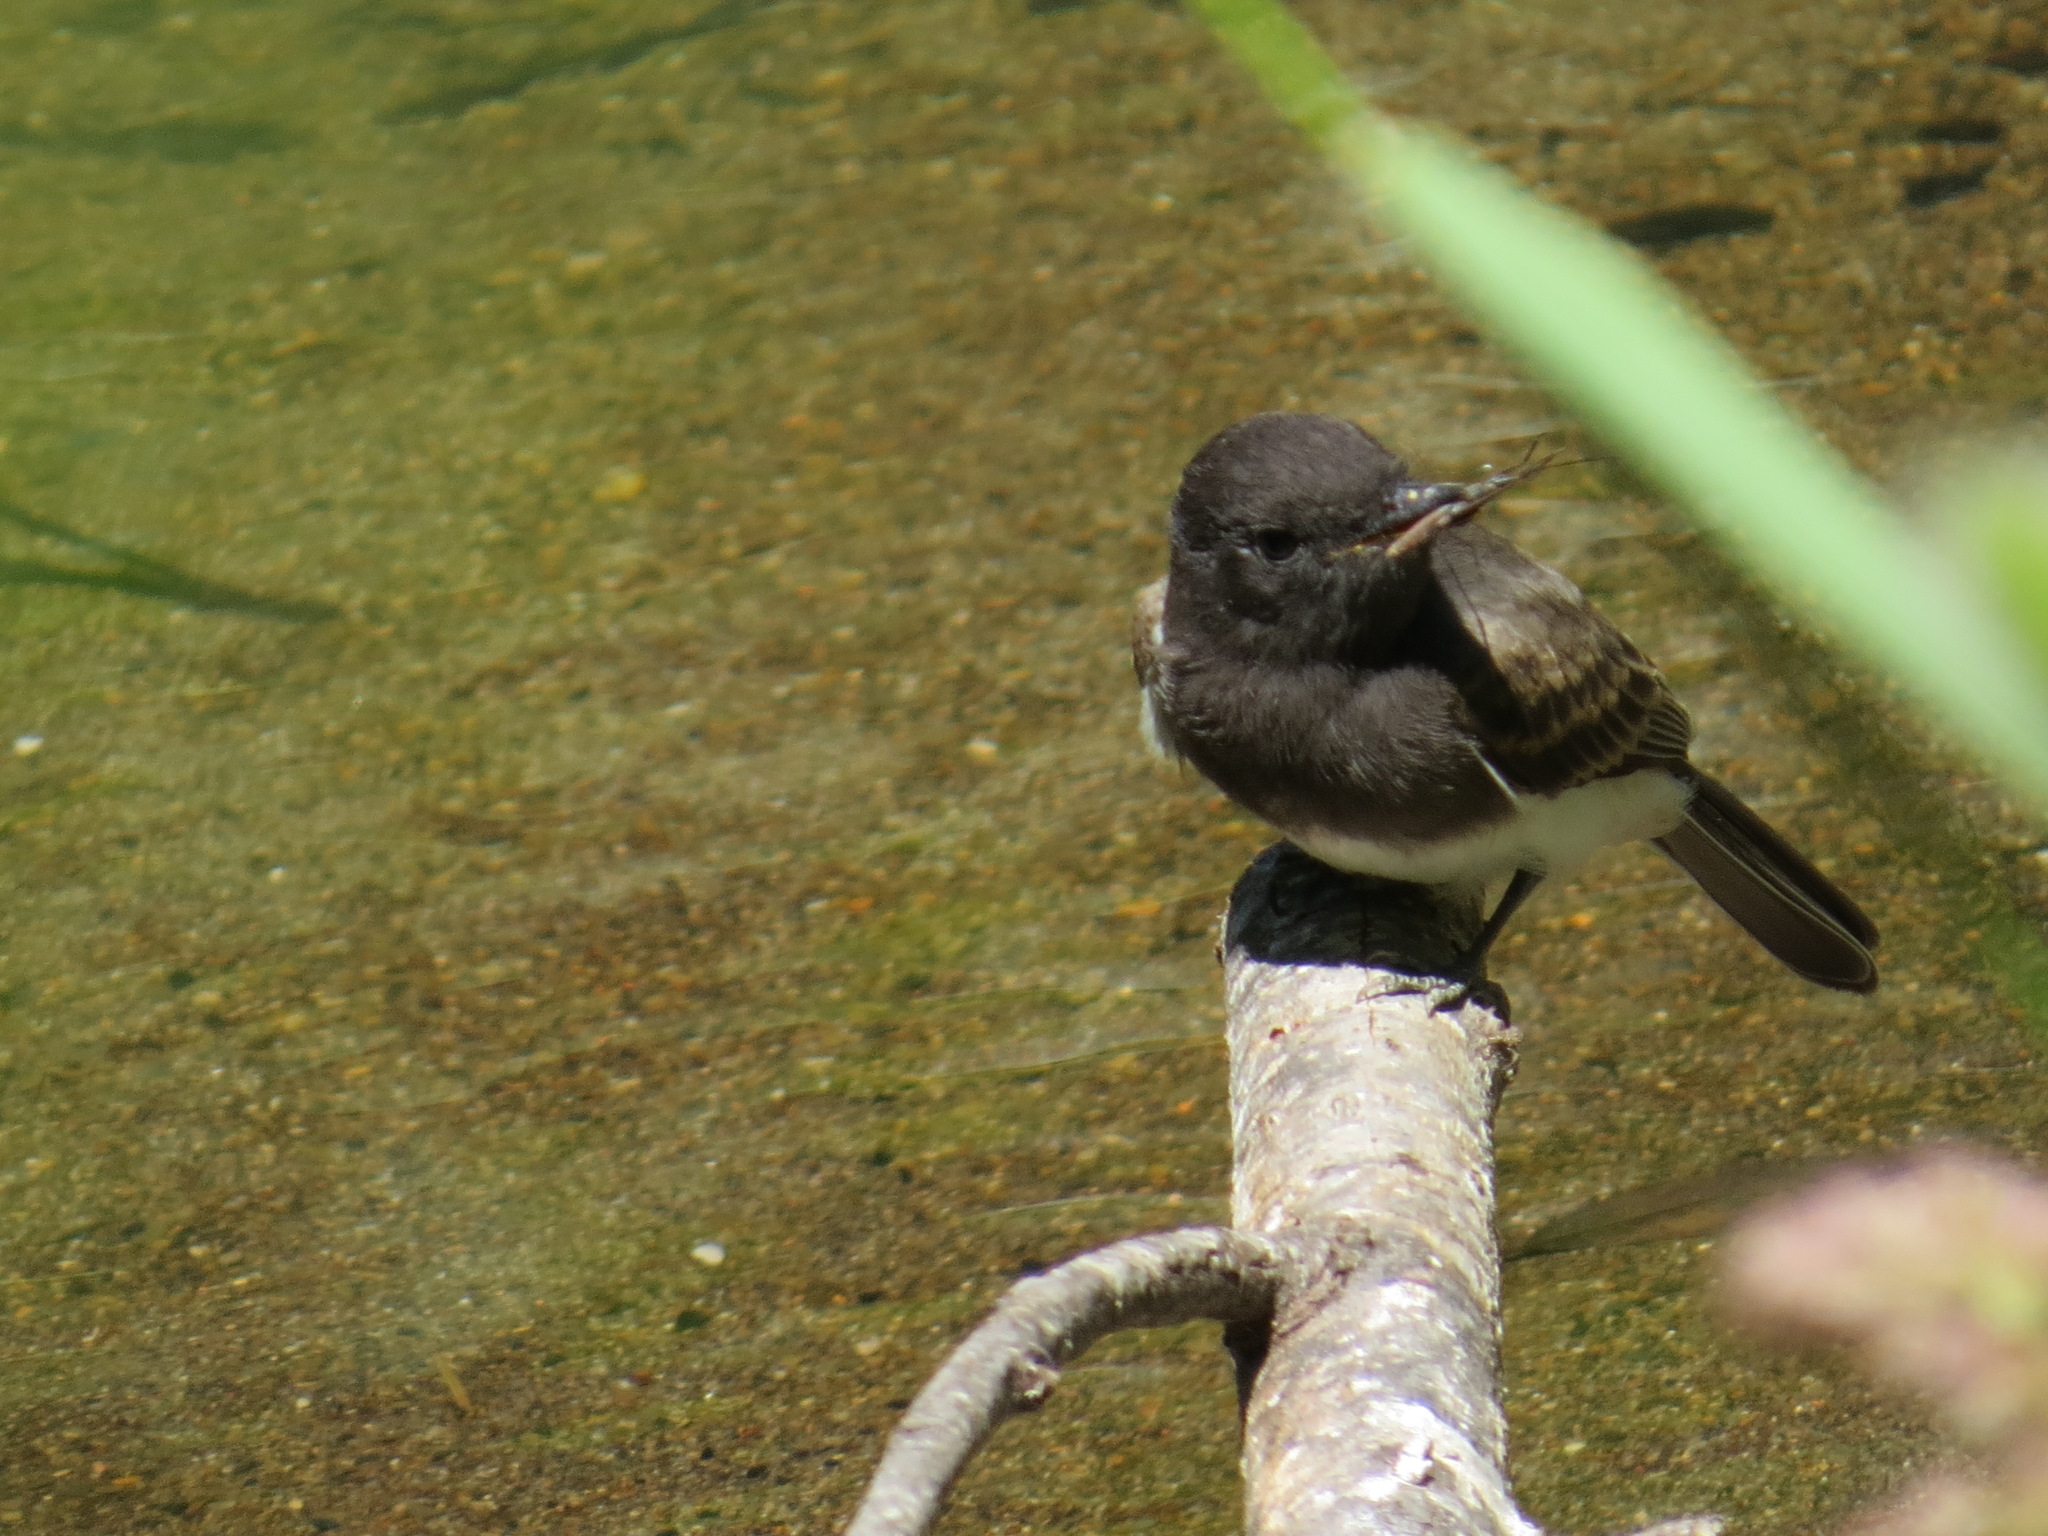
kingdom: Animalia
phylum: Chordata
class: Aves
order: Passeriformes
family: Tyrannidae
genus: Sayornis
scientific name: Sayornis nigricans
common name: Black phoebe
